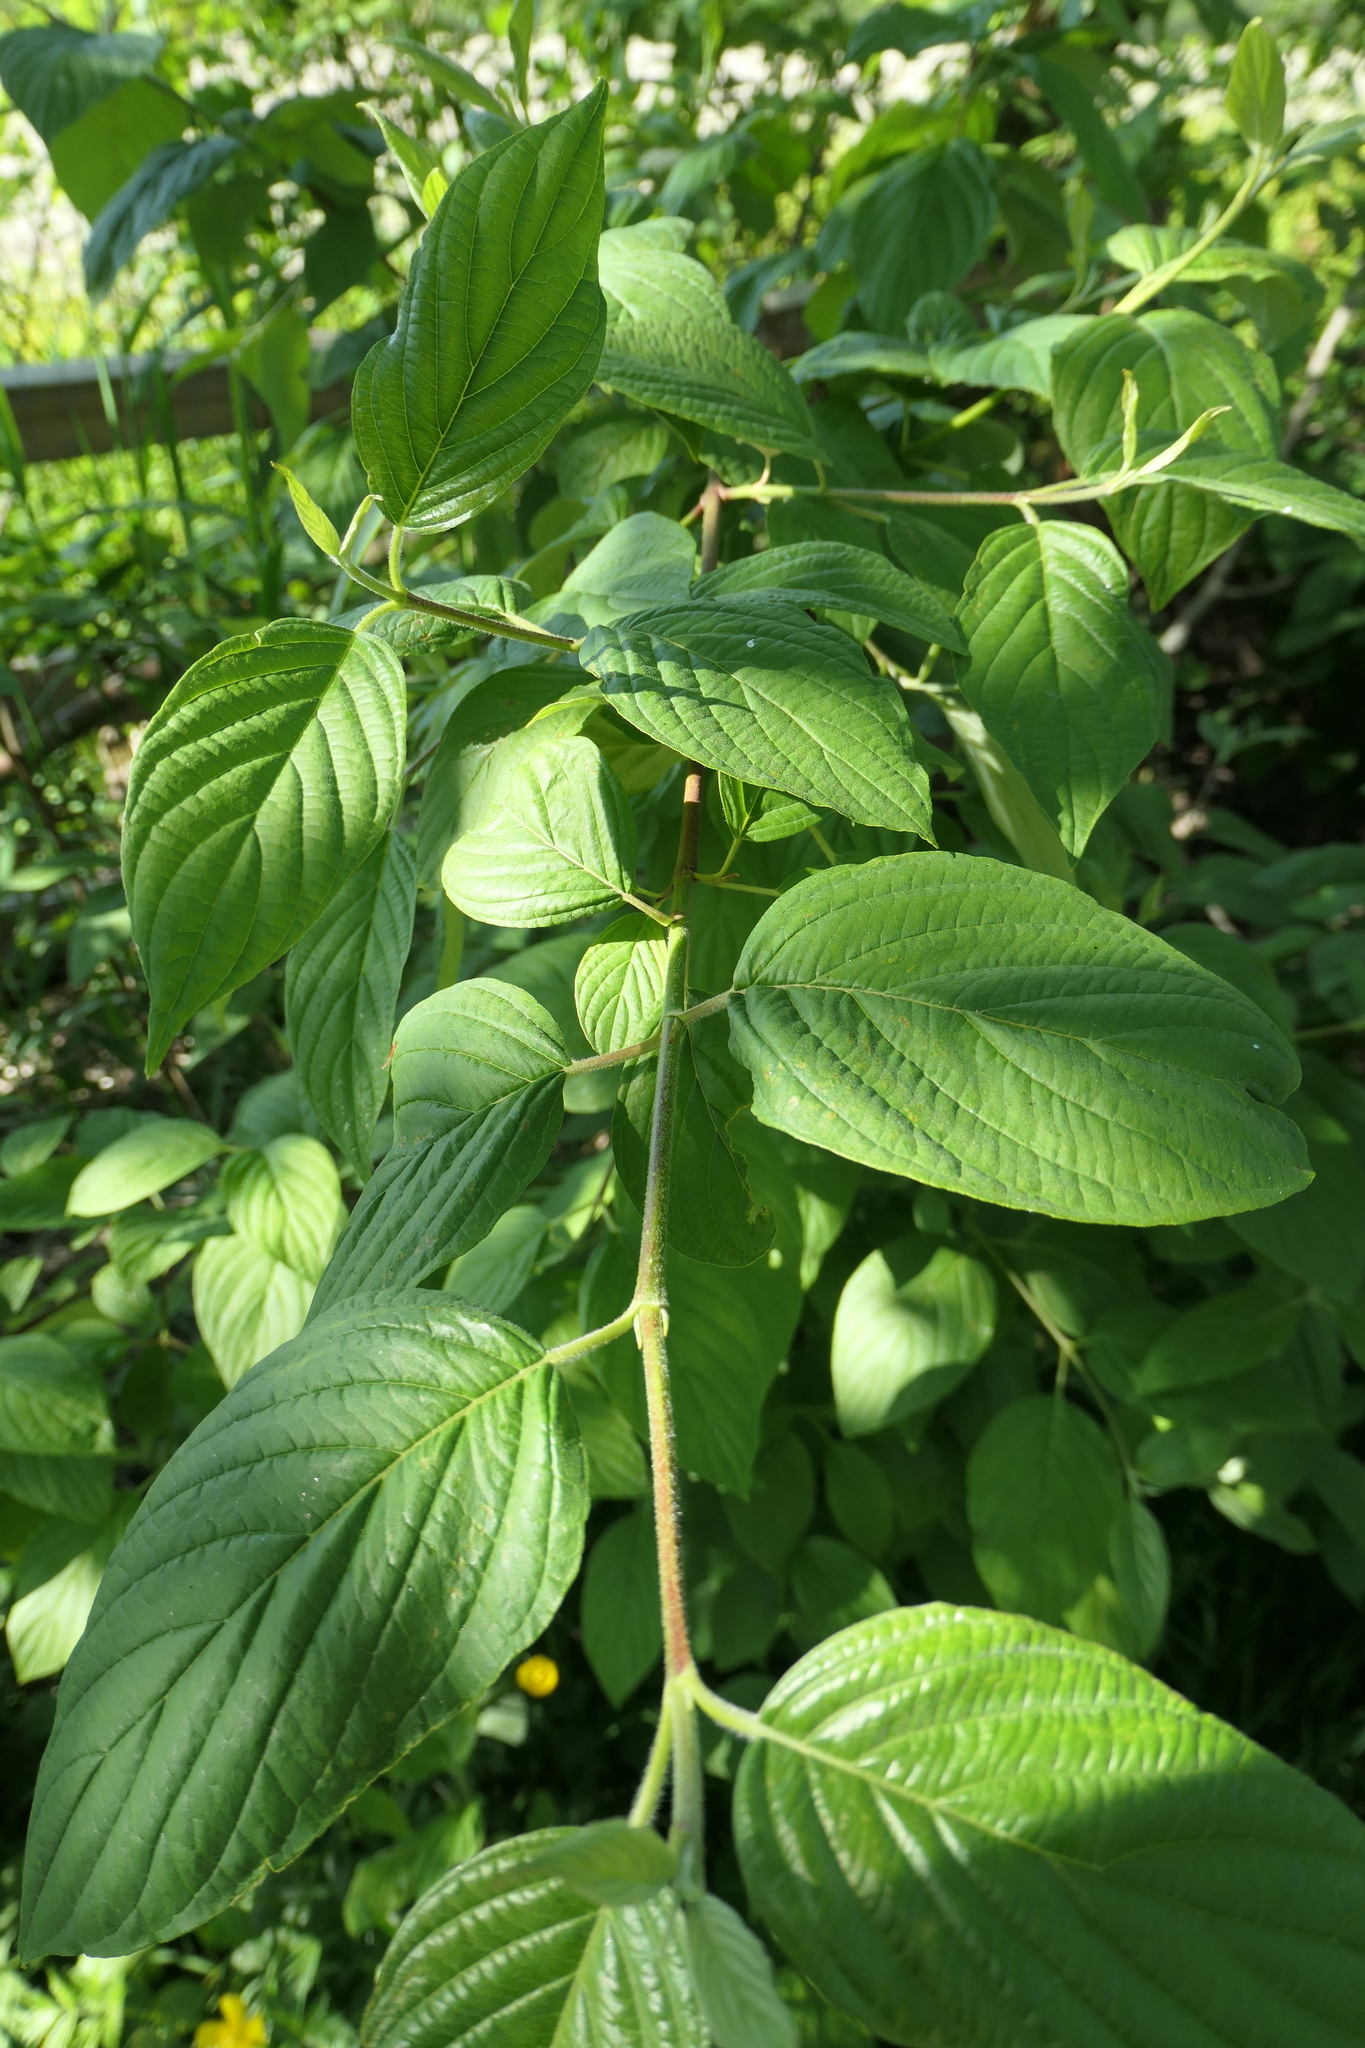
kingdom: Plantae
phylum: Tracheophyta
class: Magnoliopsida
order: Cornales
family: Cornaceae
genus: Cornus
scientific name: Cornus sericea
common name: Red-osier dogwood
